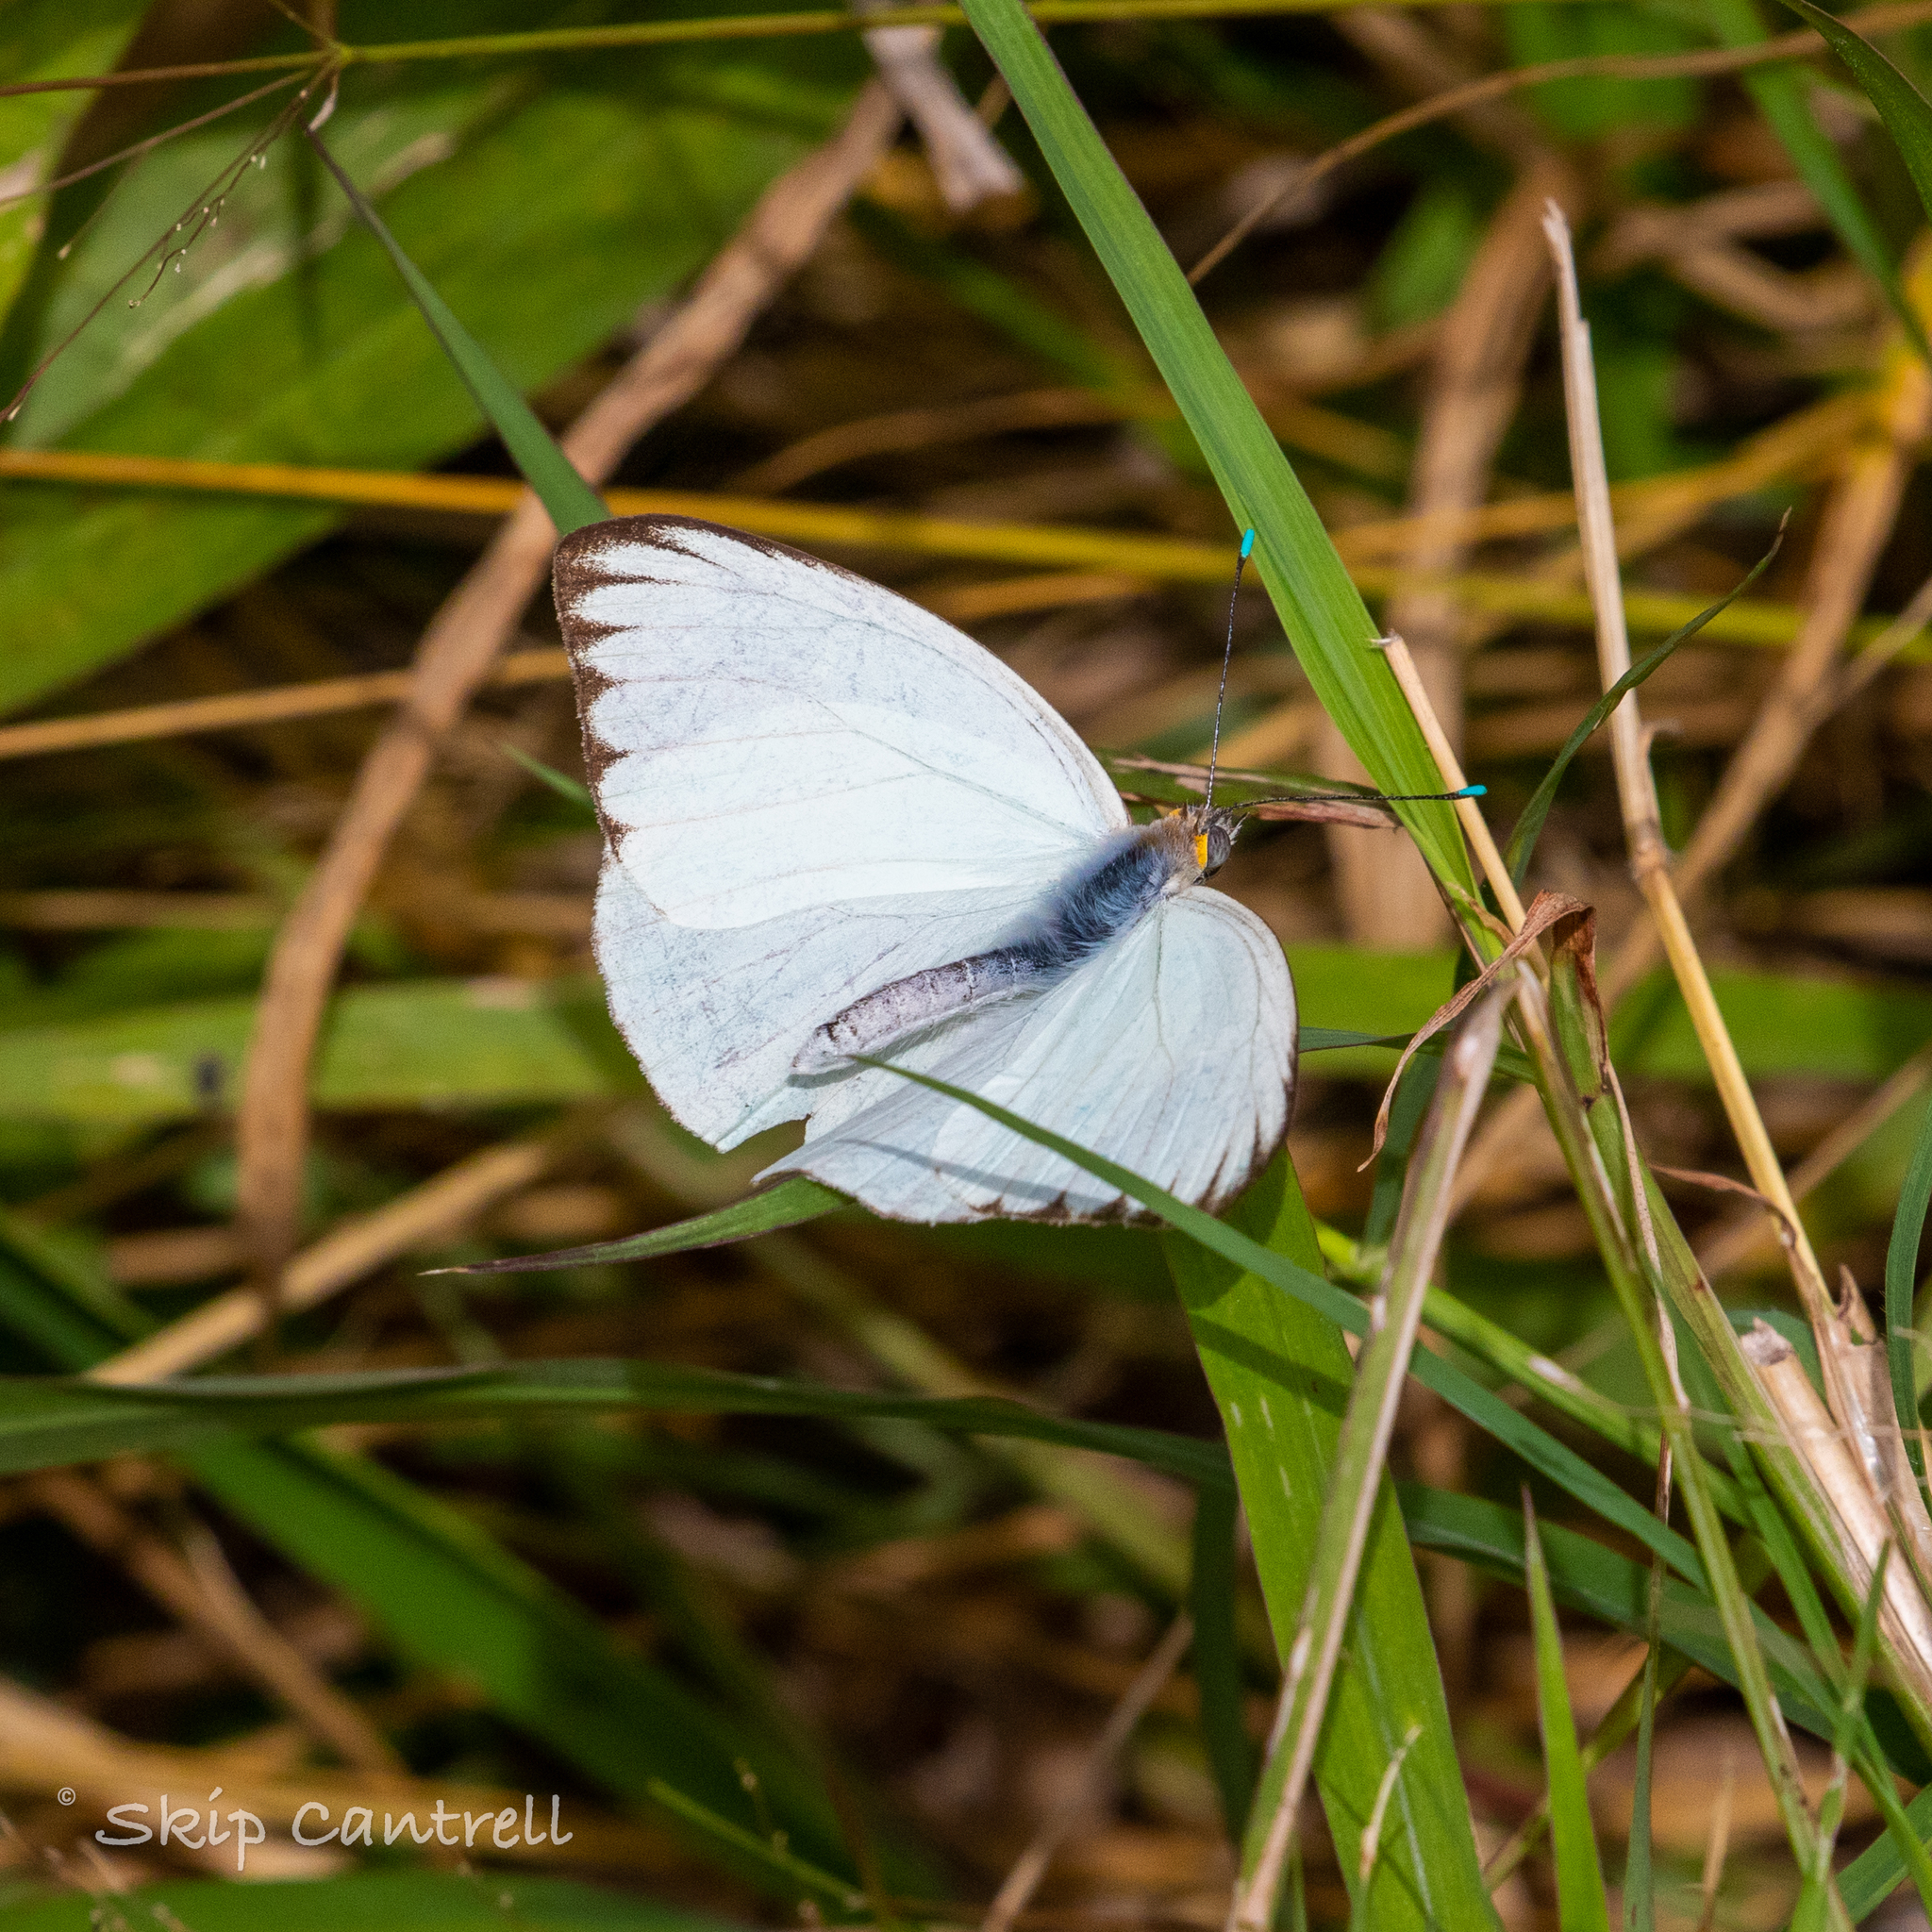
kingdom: Animalia
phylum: Arthropoda
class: Insecta
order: Lepidoptera
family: Pieridae
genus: Ascia
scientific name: Ascia monuste
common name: Great southern white
